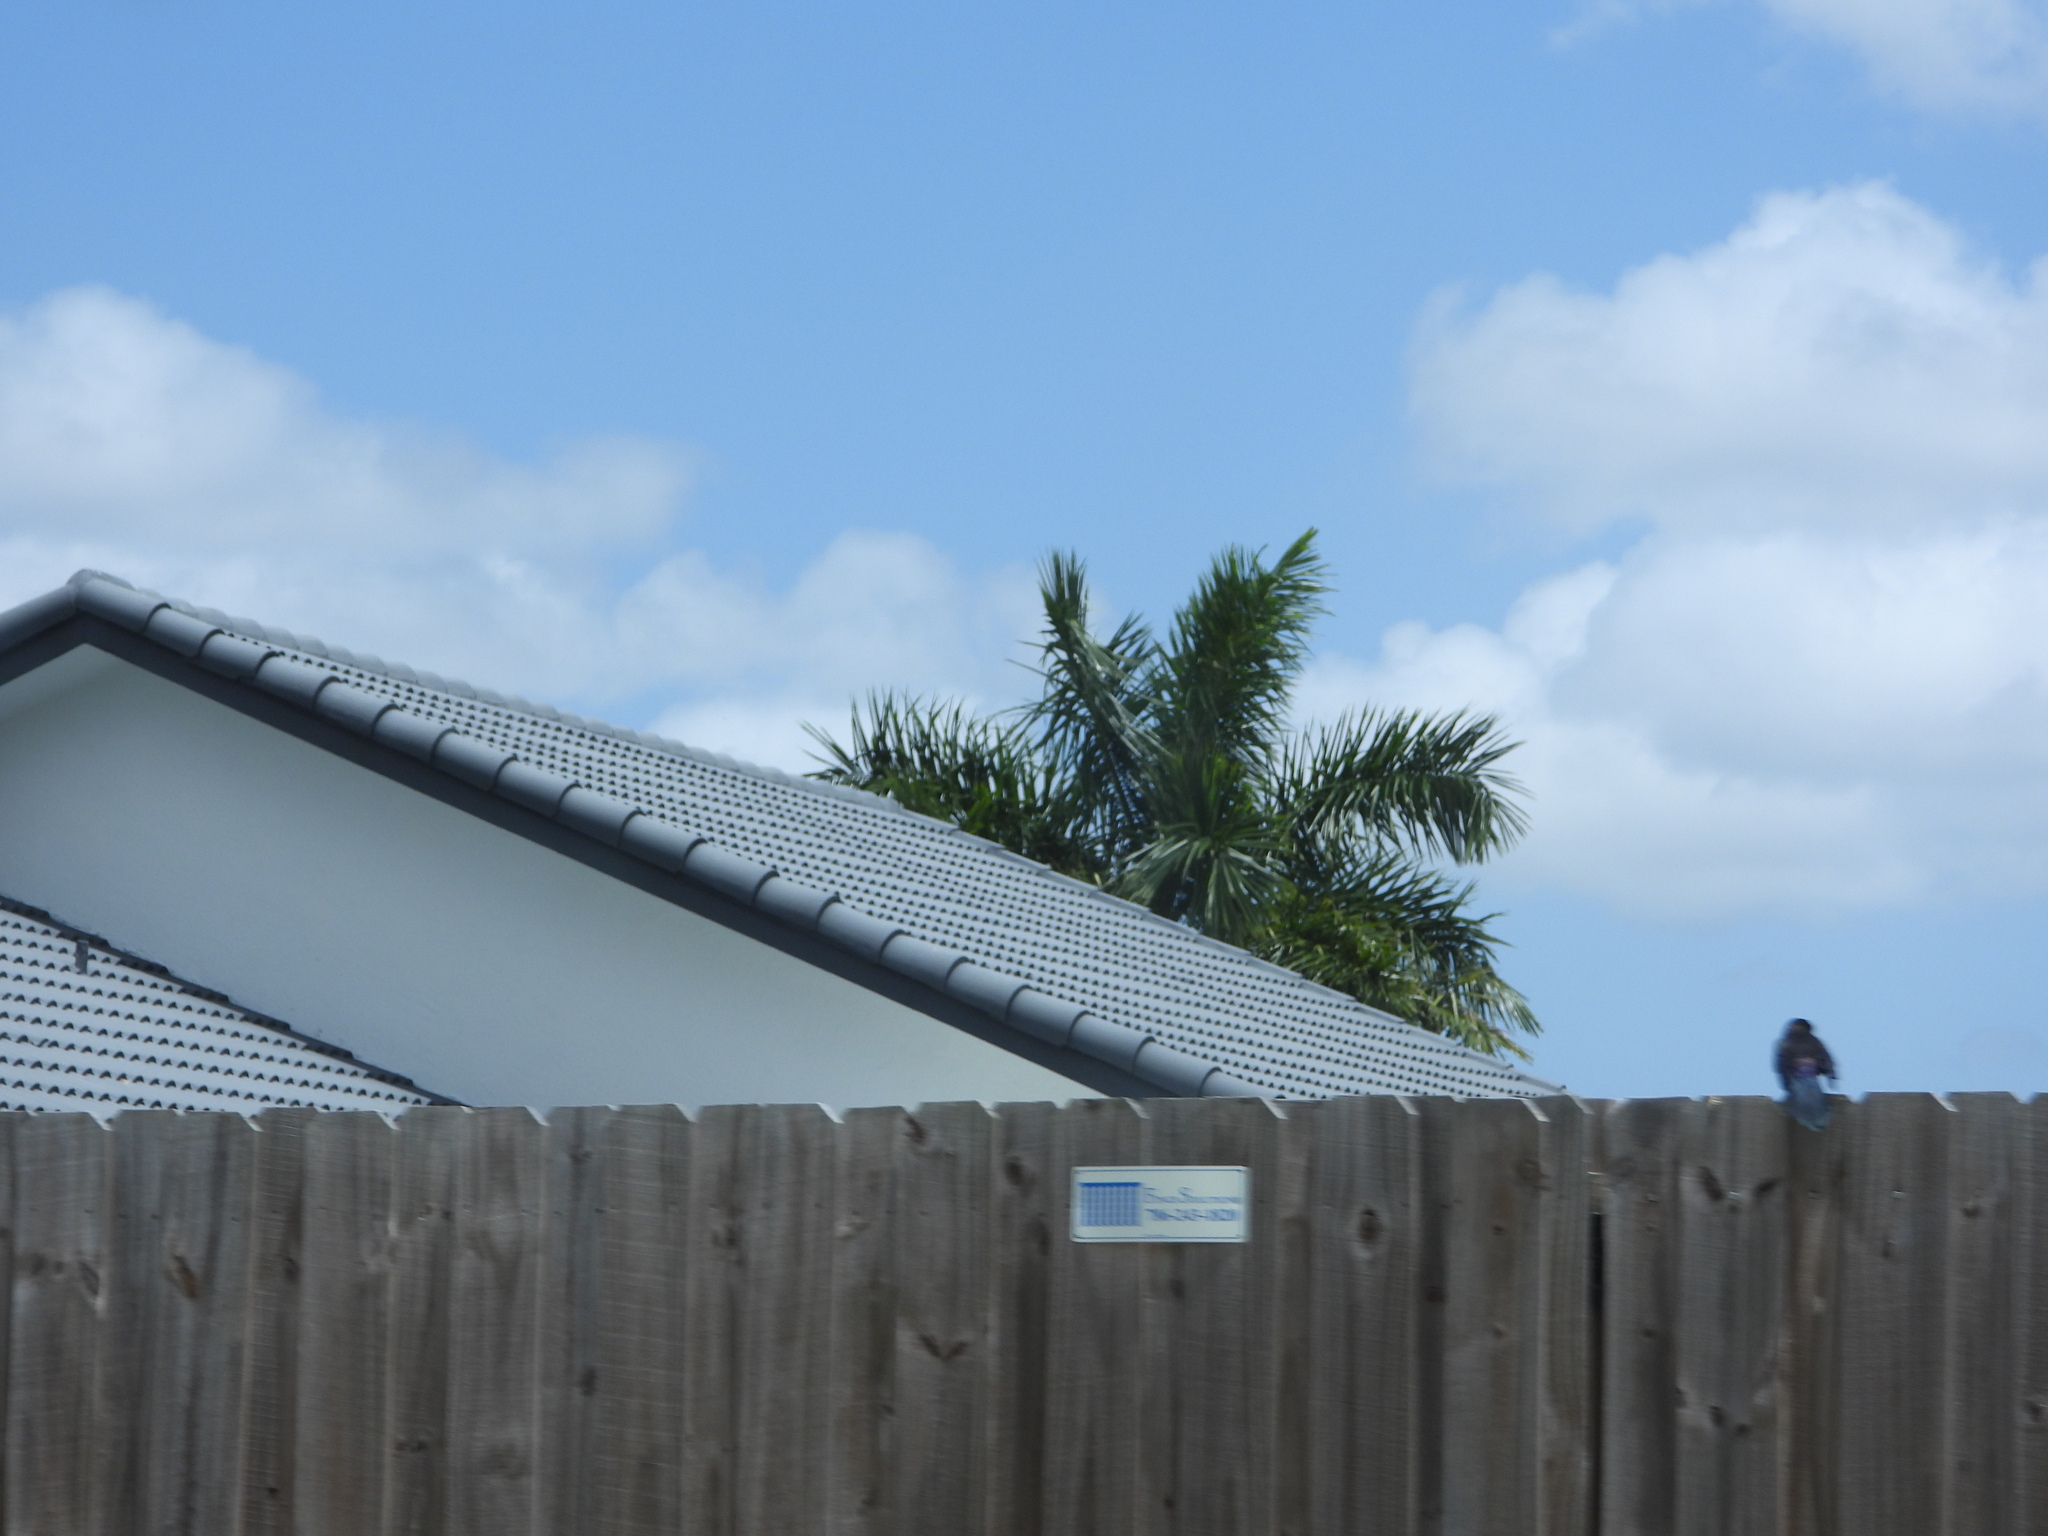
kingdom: Animalia
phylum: Chordata
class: Aves
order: Passeriformes
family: Icteridae
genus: Quiscalus
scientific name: Quiscalus major
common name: Boat-tailed grackle
